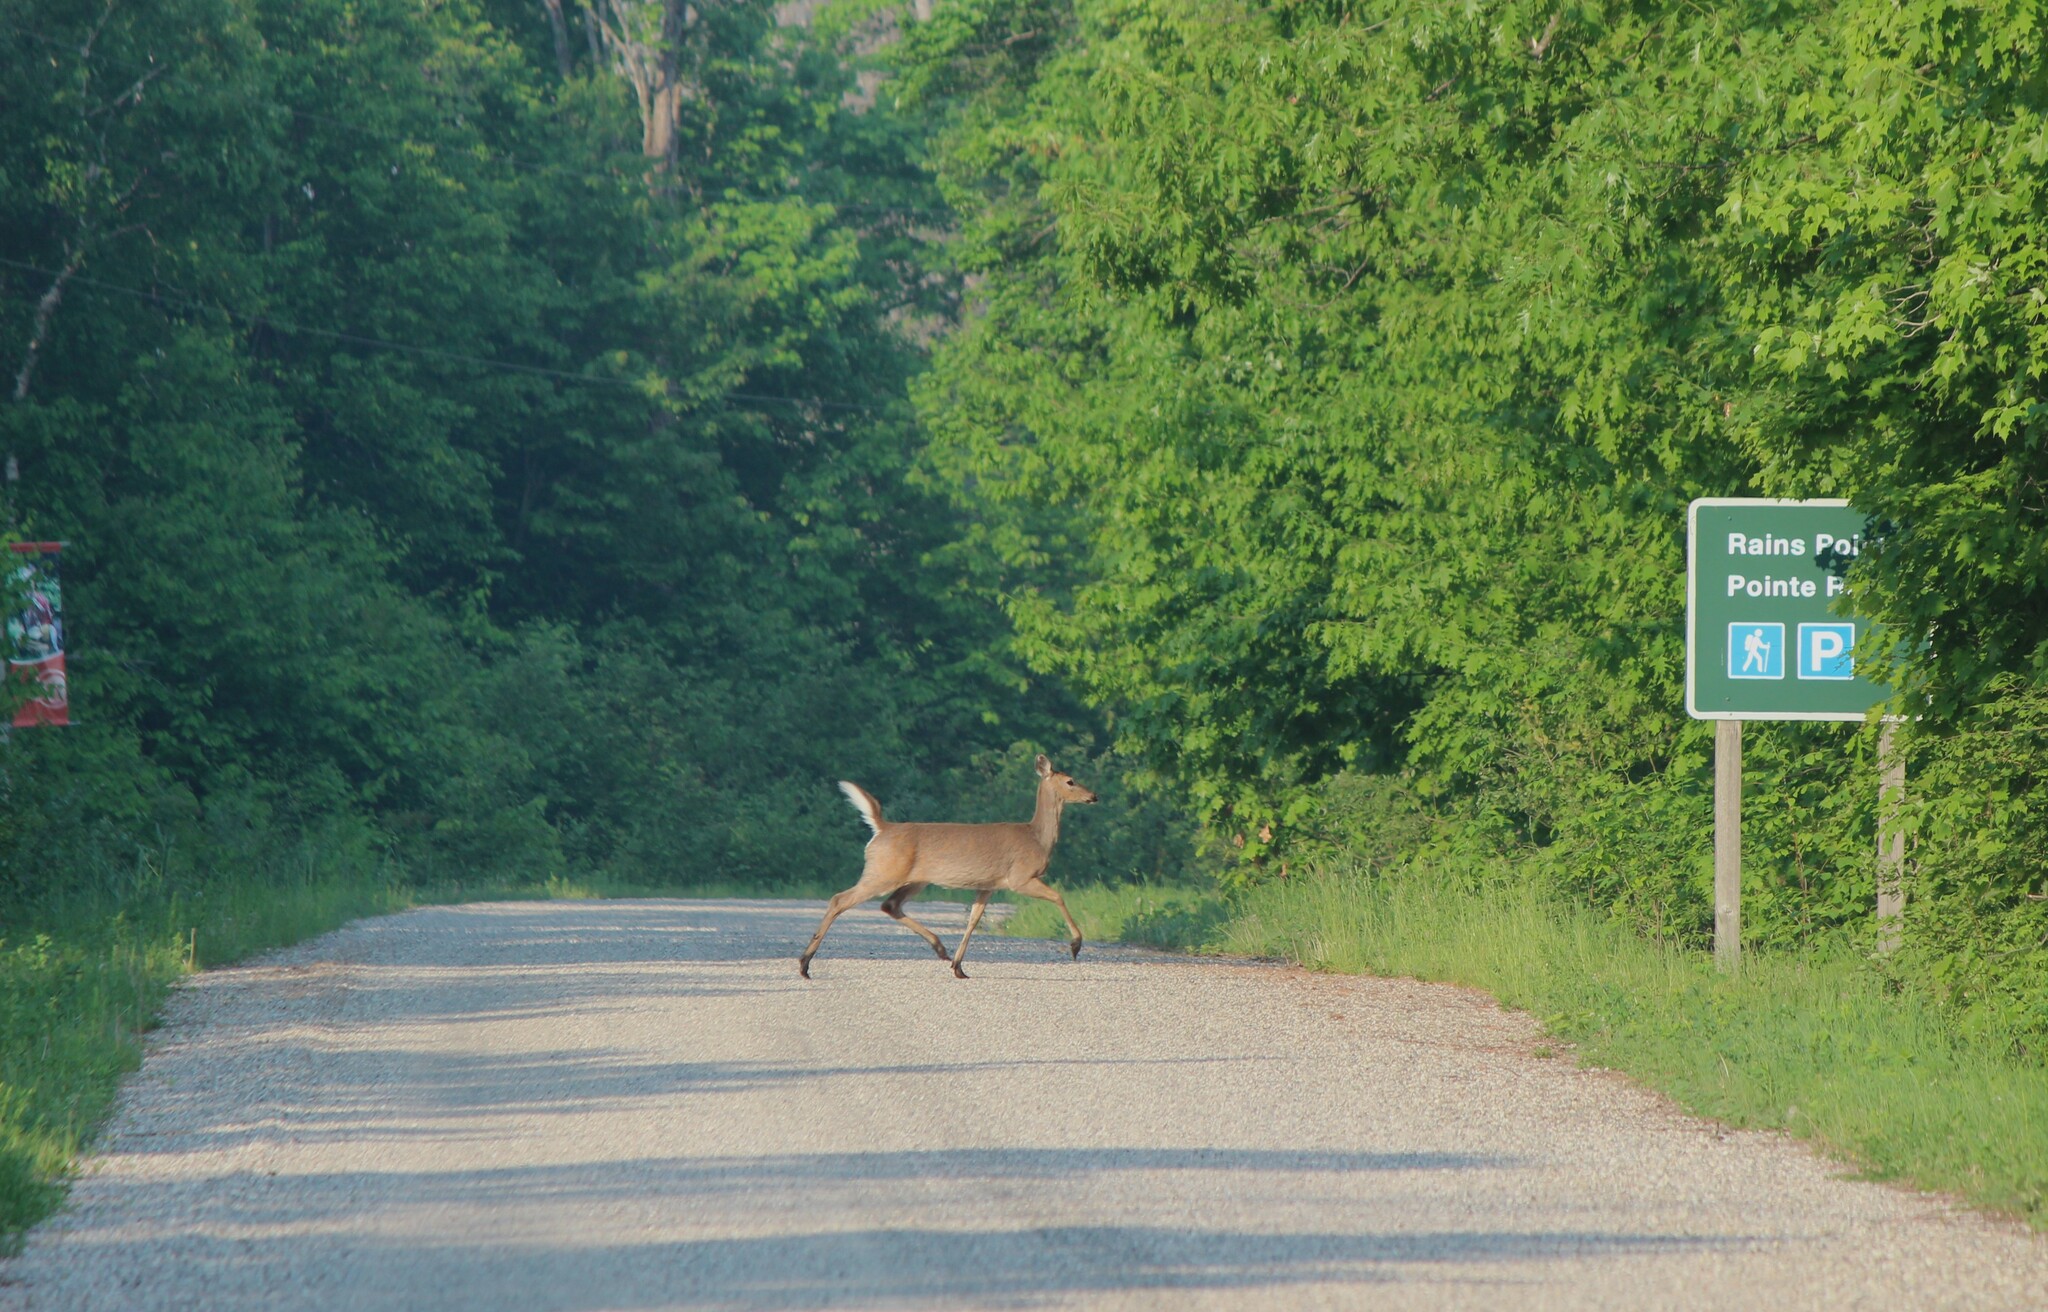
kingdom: Animalia
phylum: Chordata
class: Mammalia
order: Artiodactyla
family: Cervidae
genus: Odocoileus
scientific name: Odocoileus virginianus
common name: White-tailed deer
